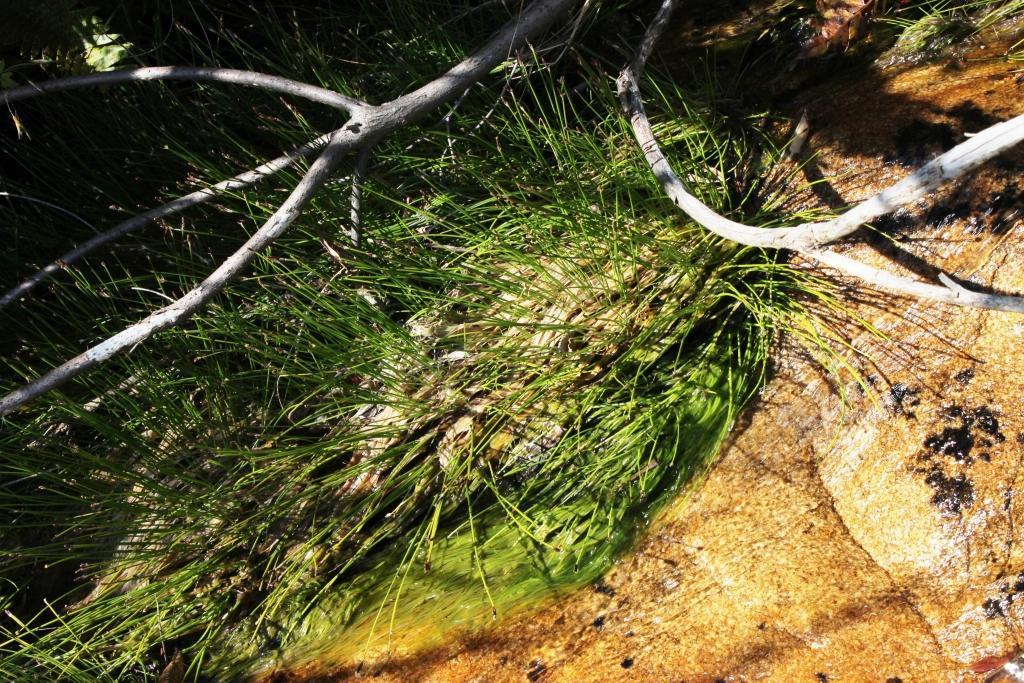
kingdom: Plantae
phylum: Tracheophyta
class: Liliopsida
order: Poales
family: Cyperaceae
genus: Isolepis
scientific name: Isolepis digitata
